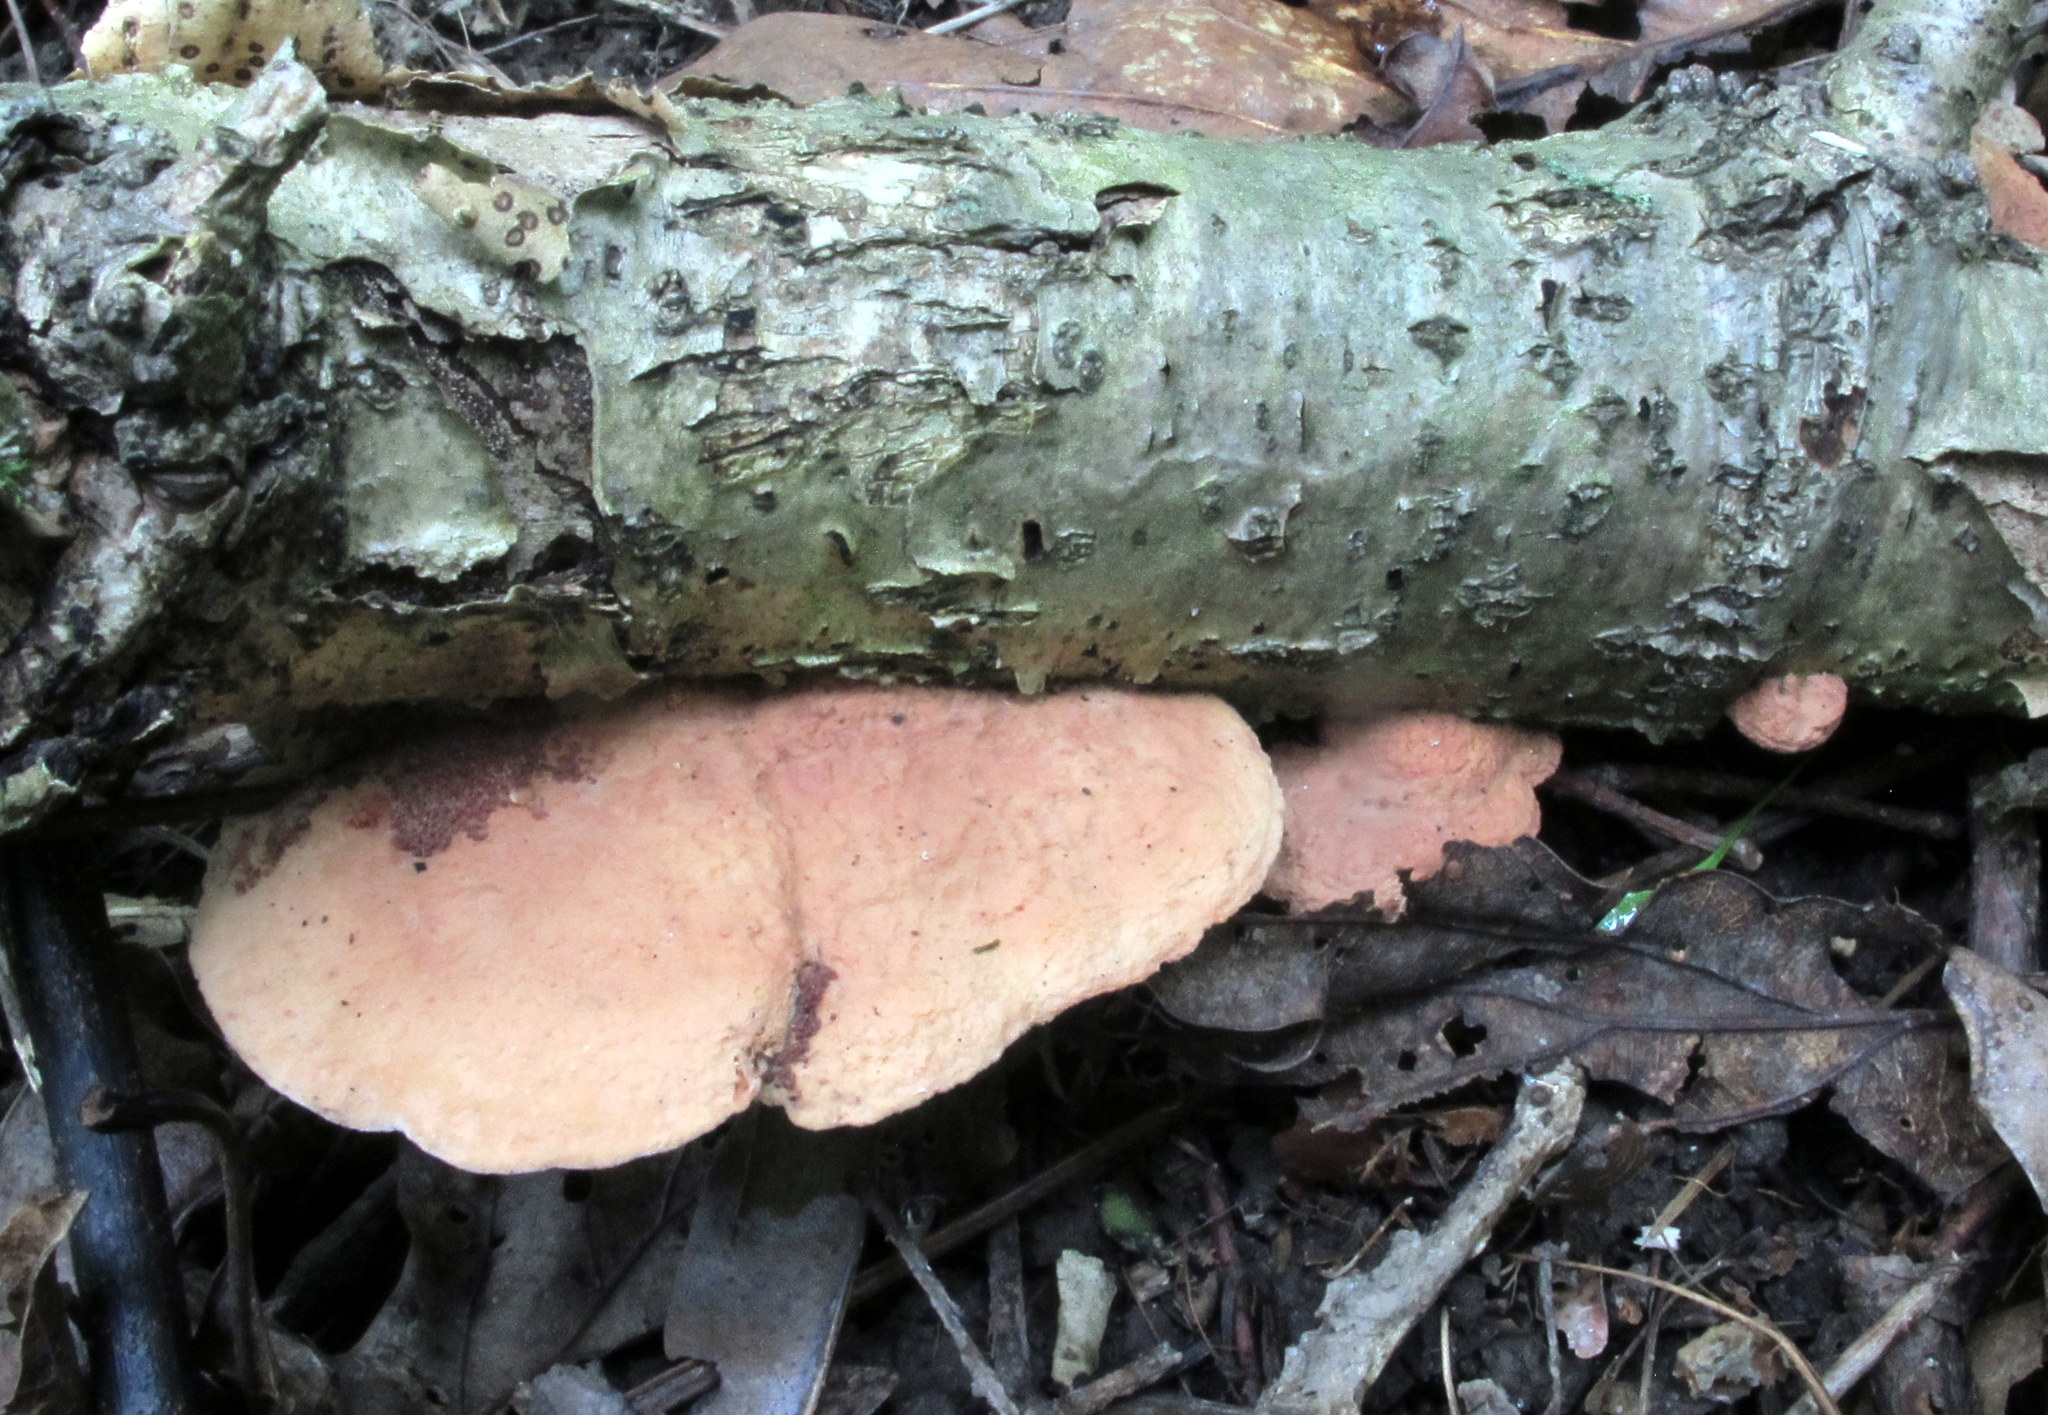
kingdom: Fungi
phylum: Basidiomycota
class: Agaricomycetes
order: Polyporales
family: Phanerochaetaceae
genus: Hapalopilus
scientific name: Hapalopilus rutilans
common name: Tender nesting polypore
